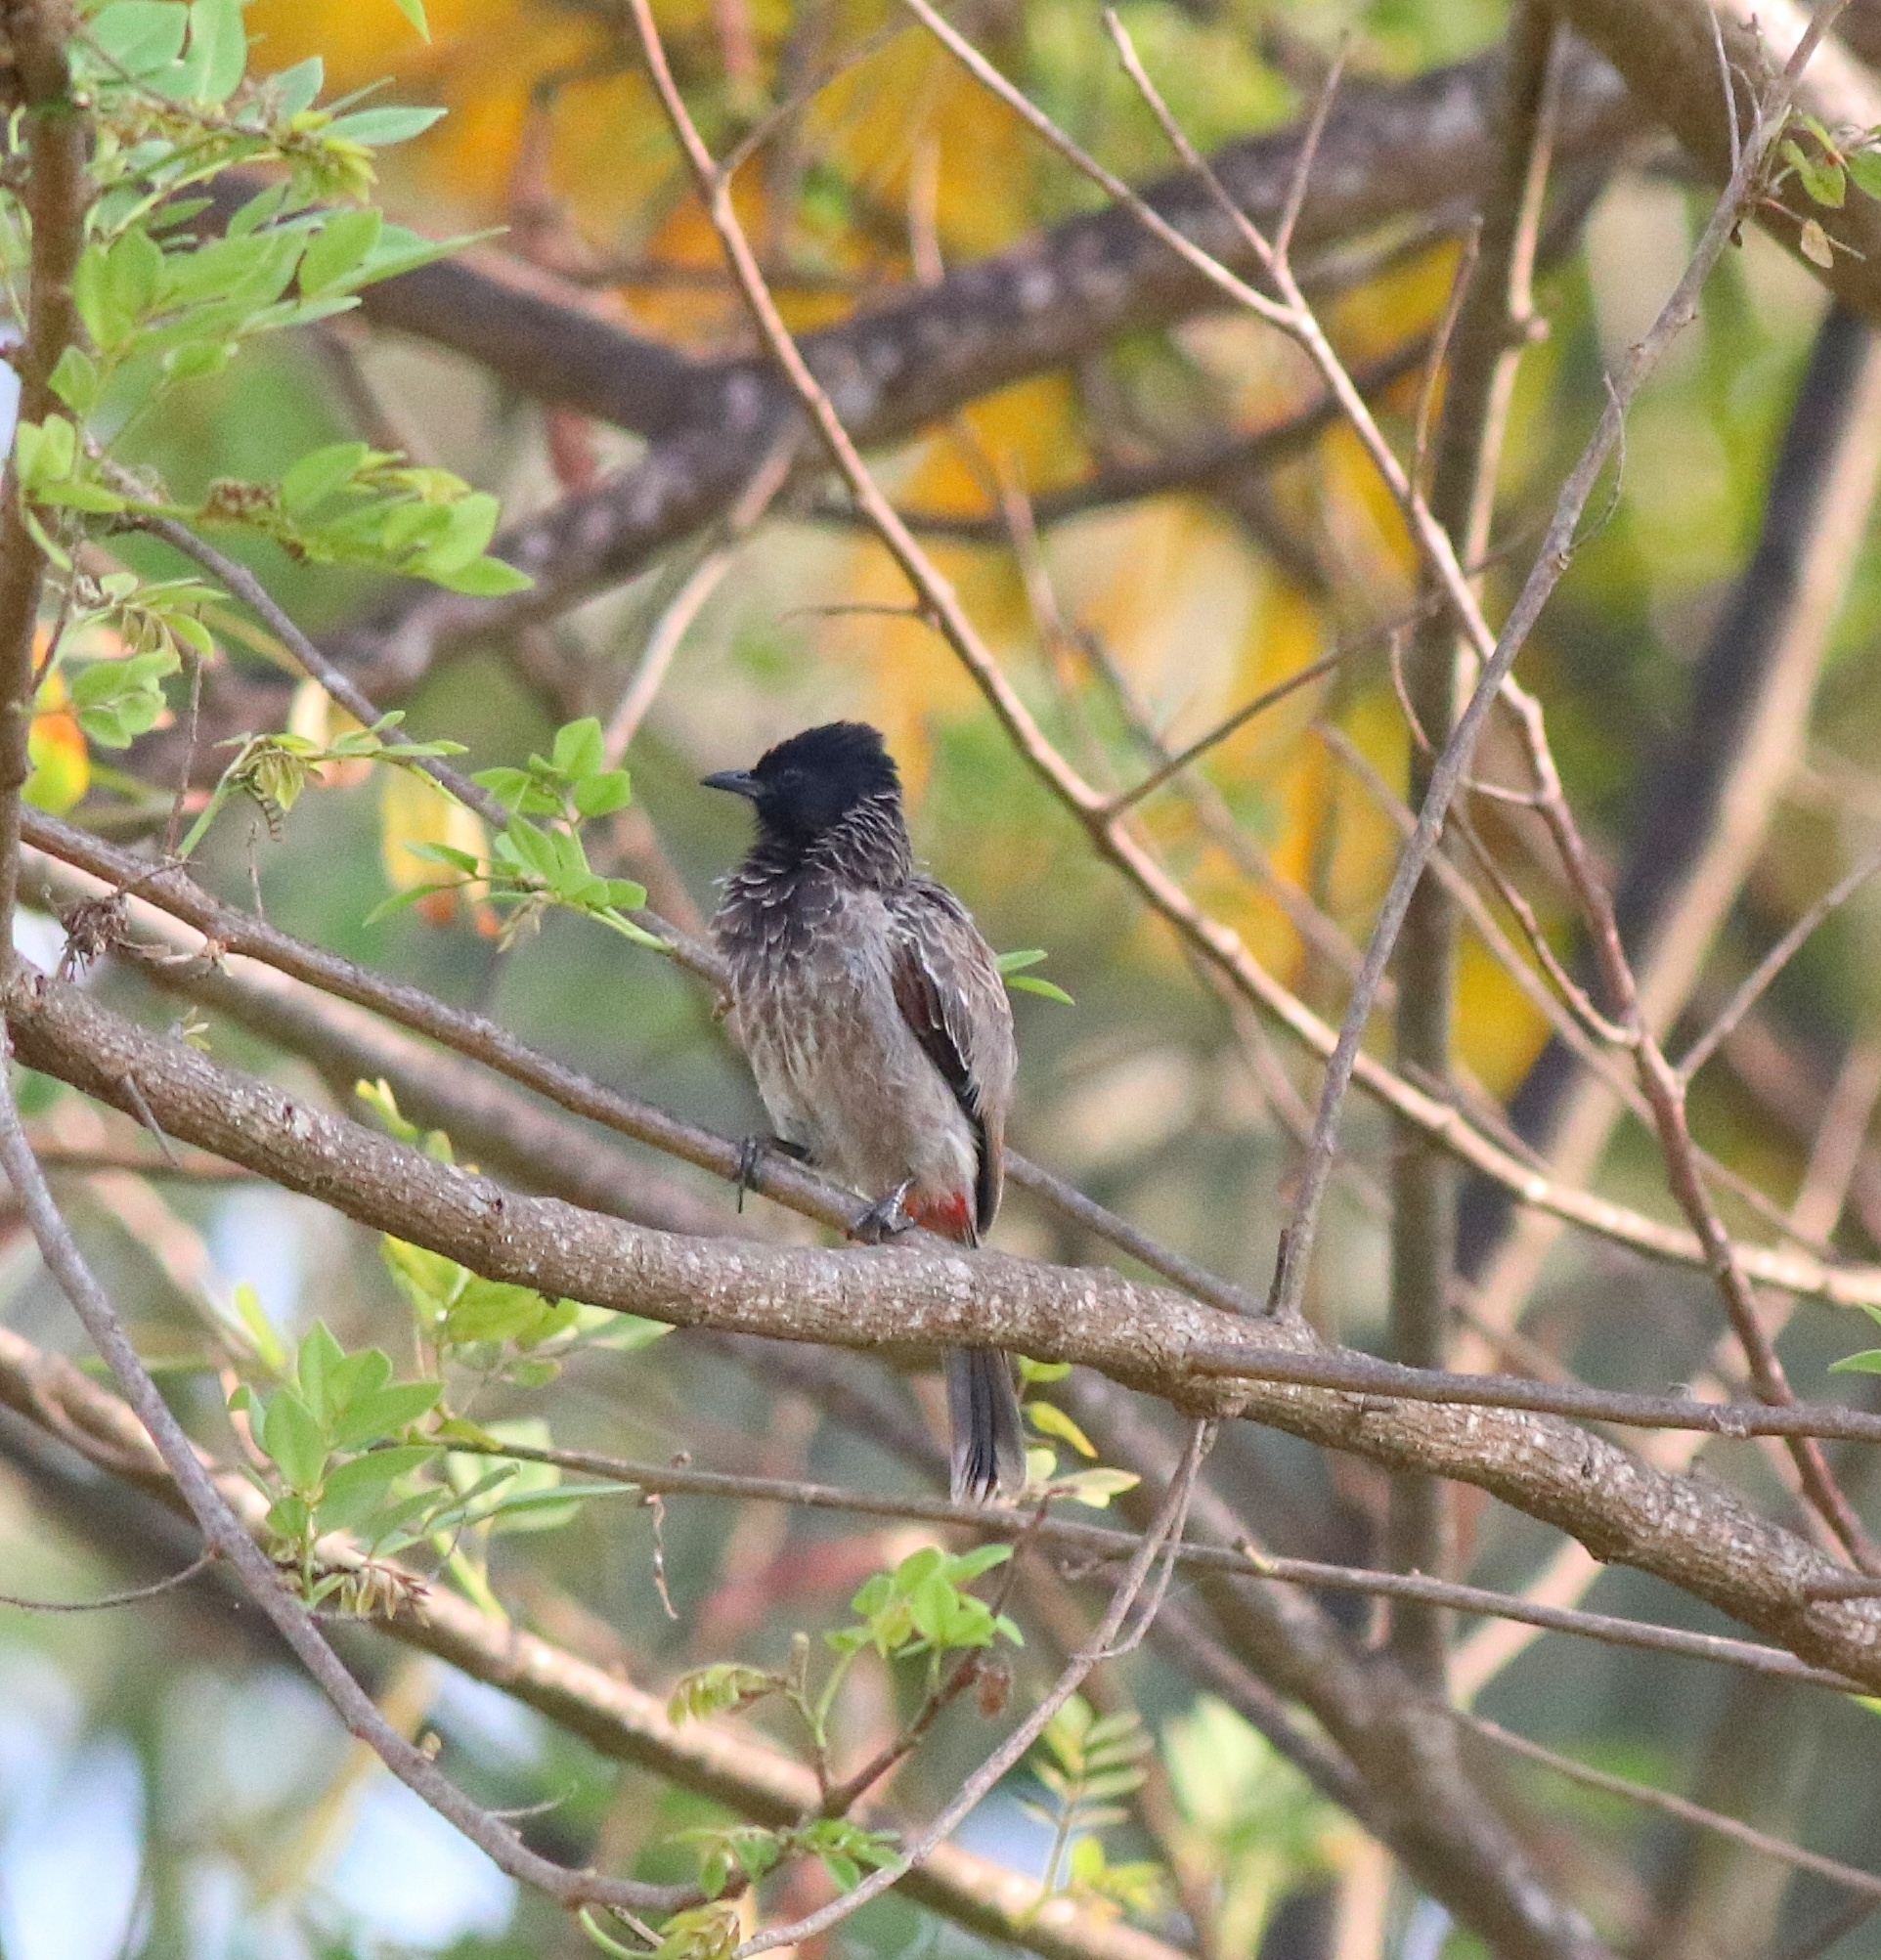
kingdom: Animalia
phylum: Chordata
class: Aves
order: Passeriformes
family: Pycnonotidae
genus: Pycnonotus
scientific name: Pycnonotus cafer
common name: Red-vented bulbul
